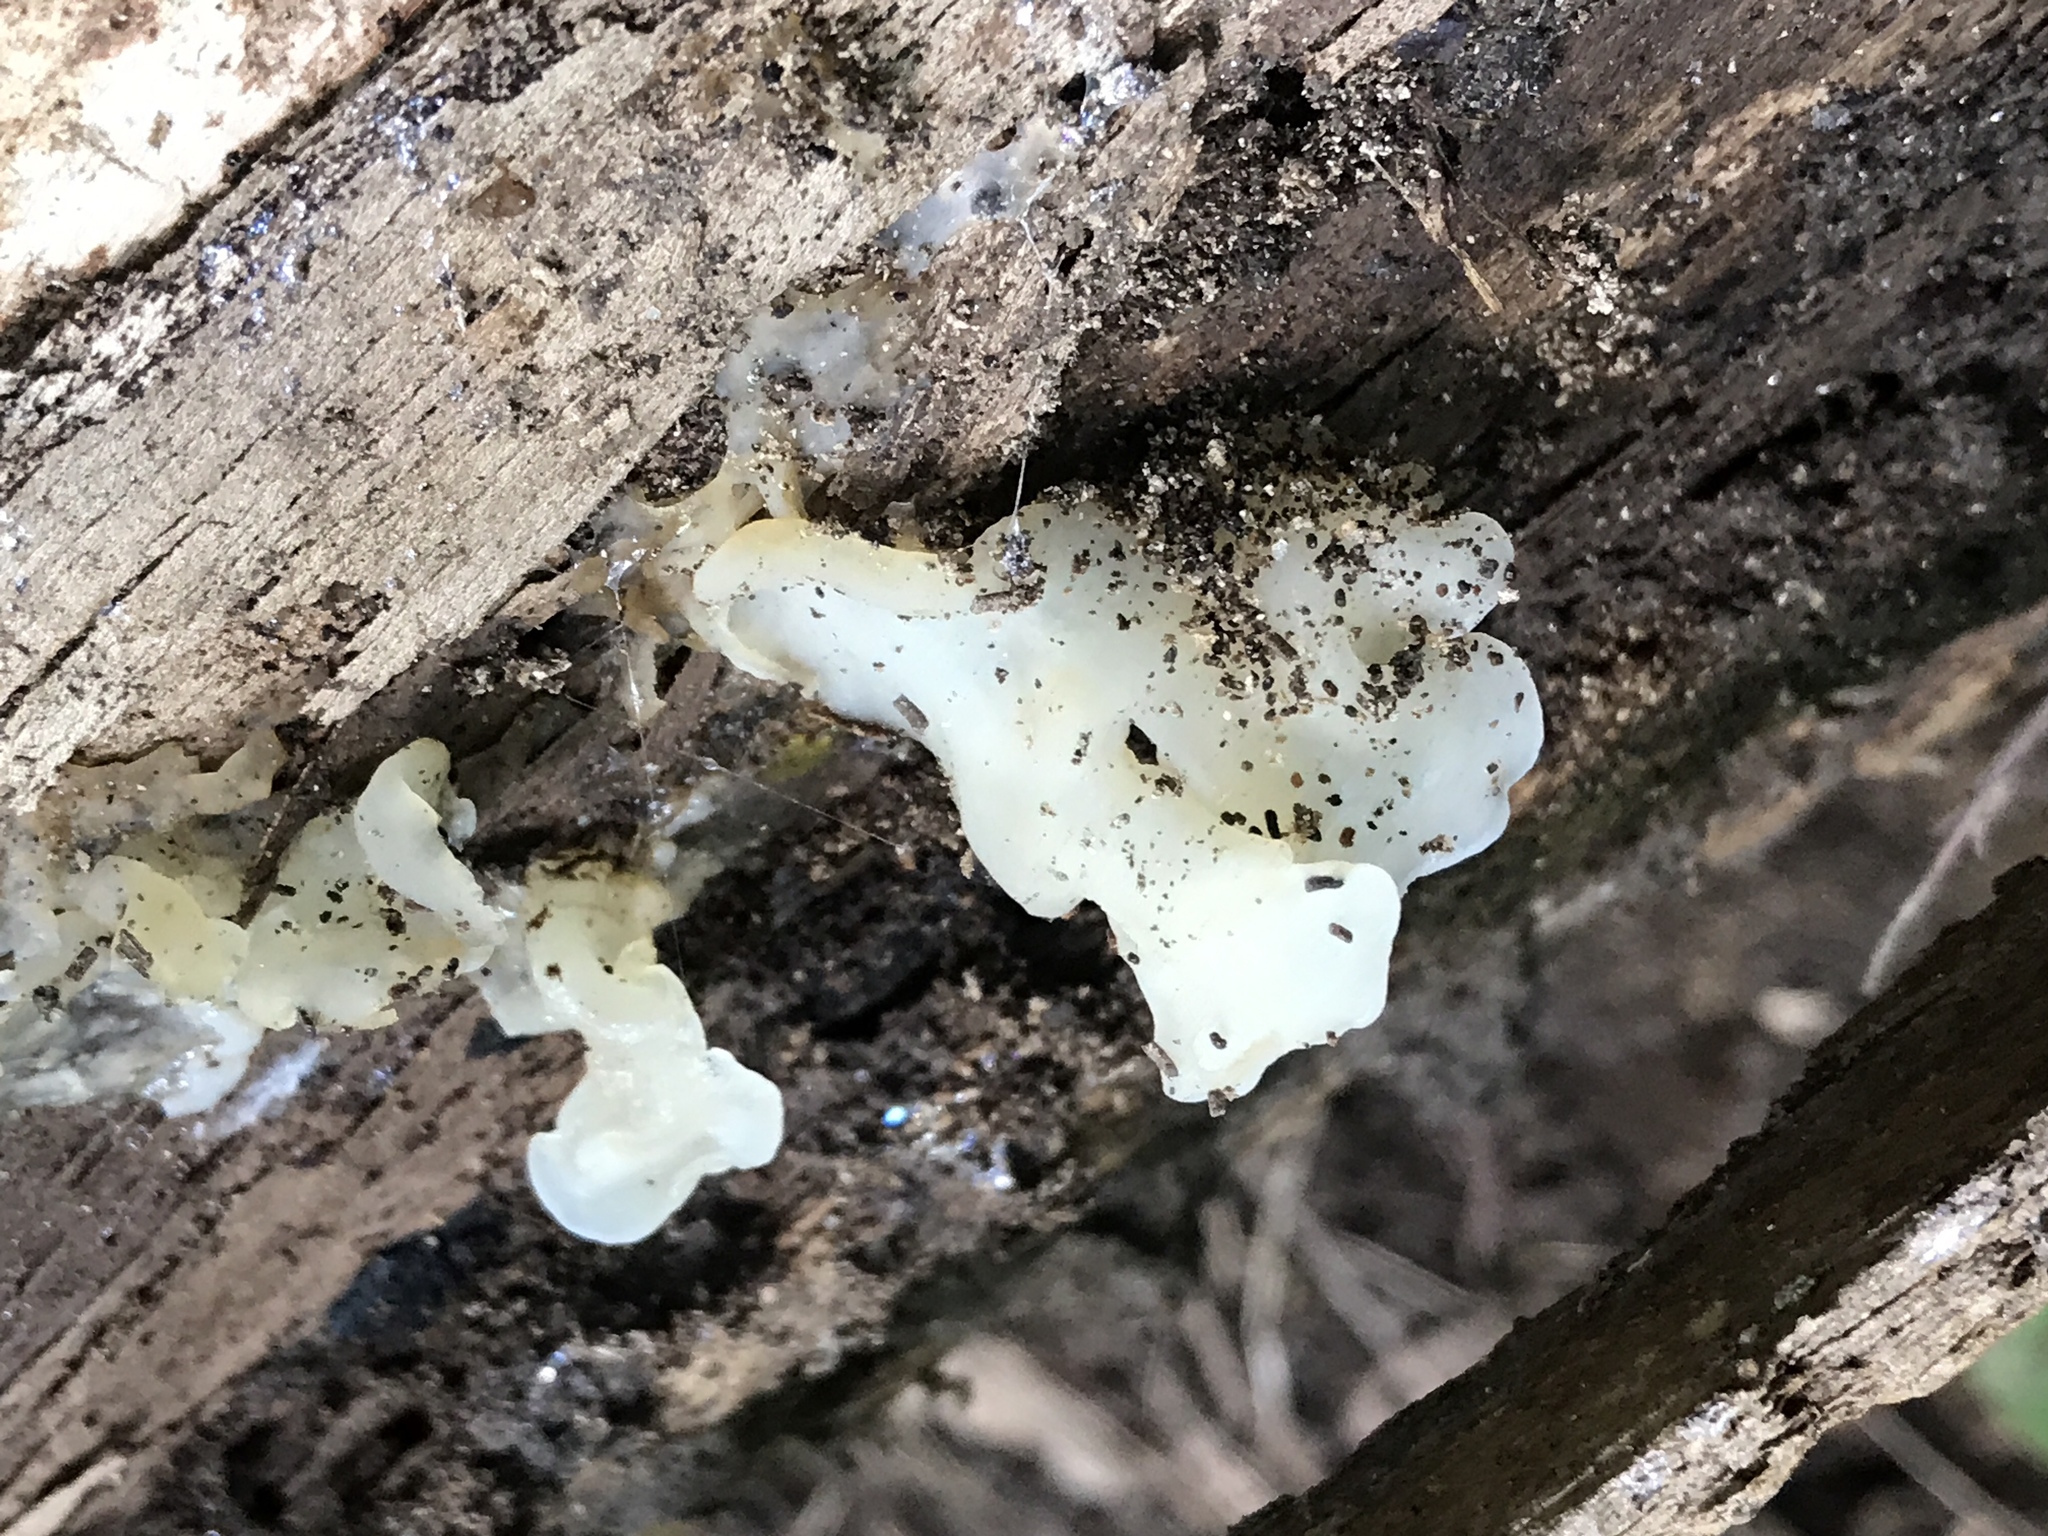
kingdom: Fungi
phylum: Basidiomycota
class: Agaricomycetes
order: Auriculariales
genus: Ductifera
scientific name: Ductifera pululahuana
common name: White jelly fungus
